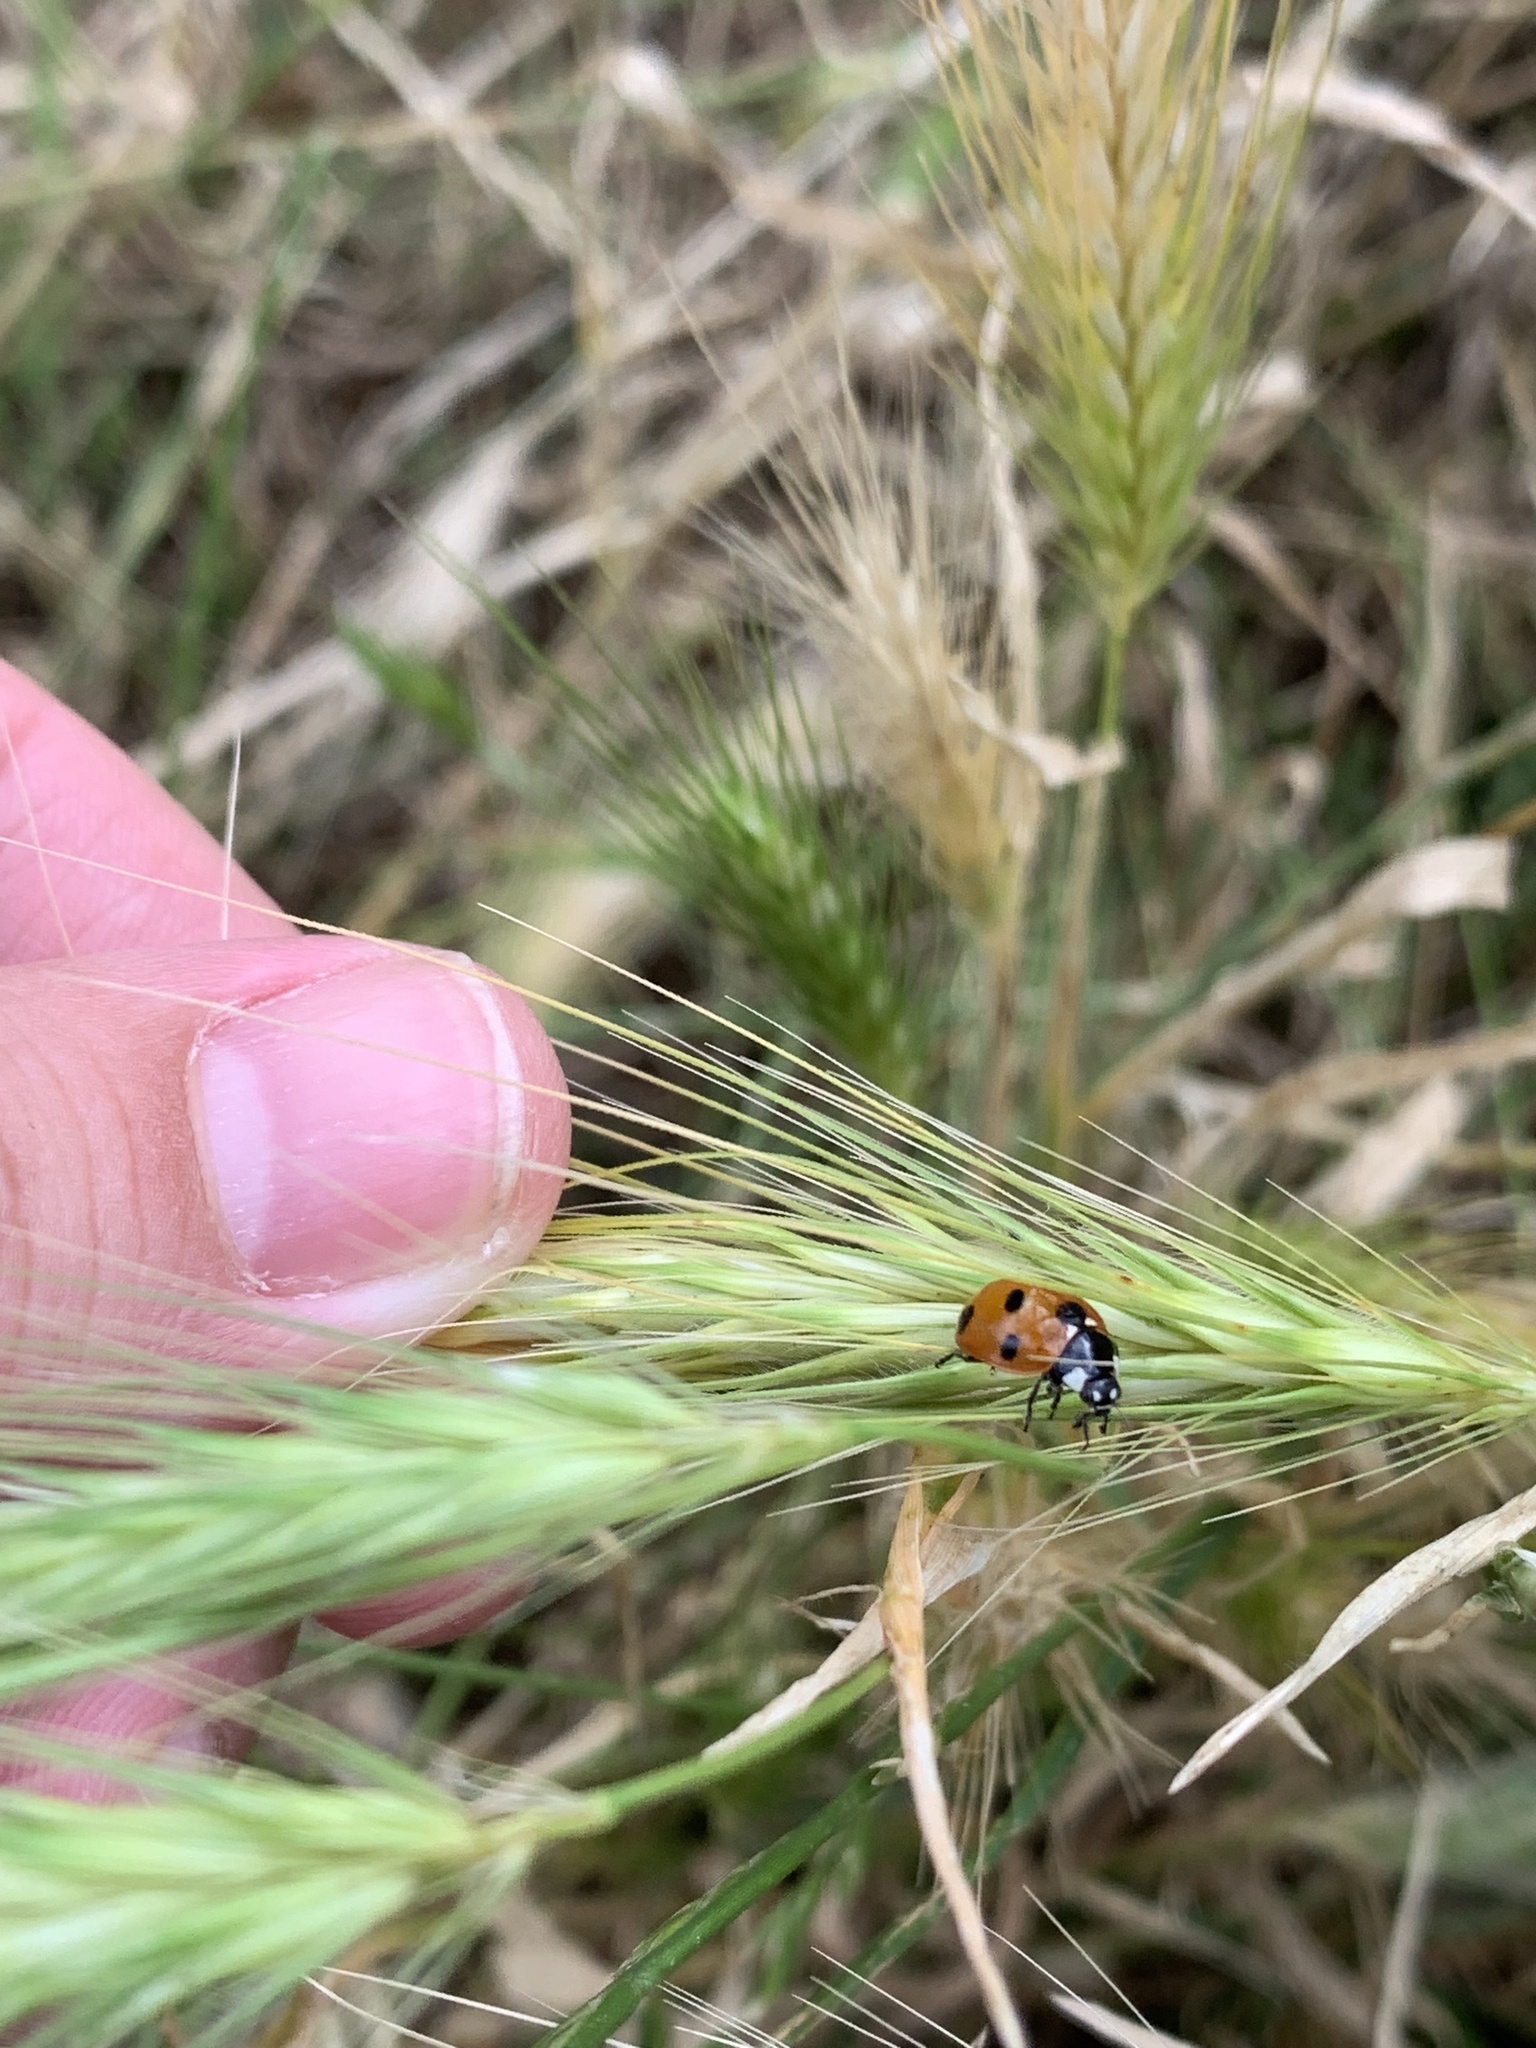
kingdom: Animalia
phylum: Arthropoda
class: Insecta
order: Coleoptera
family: Coccinellidae
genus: Coccinella
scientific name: Coccinella septempunctata
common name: Sevenspotted lady beetle
